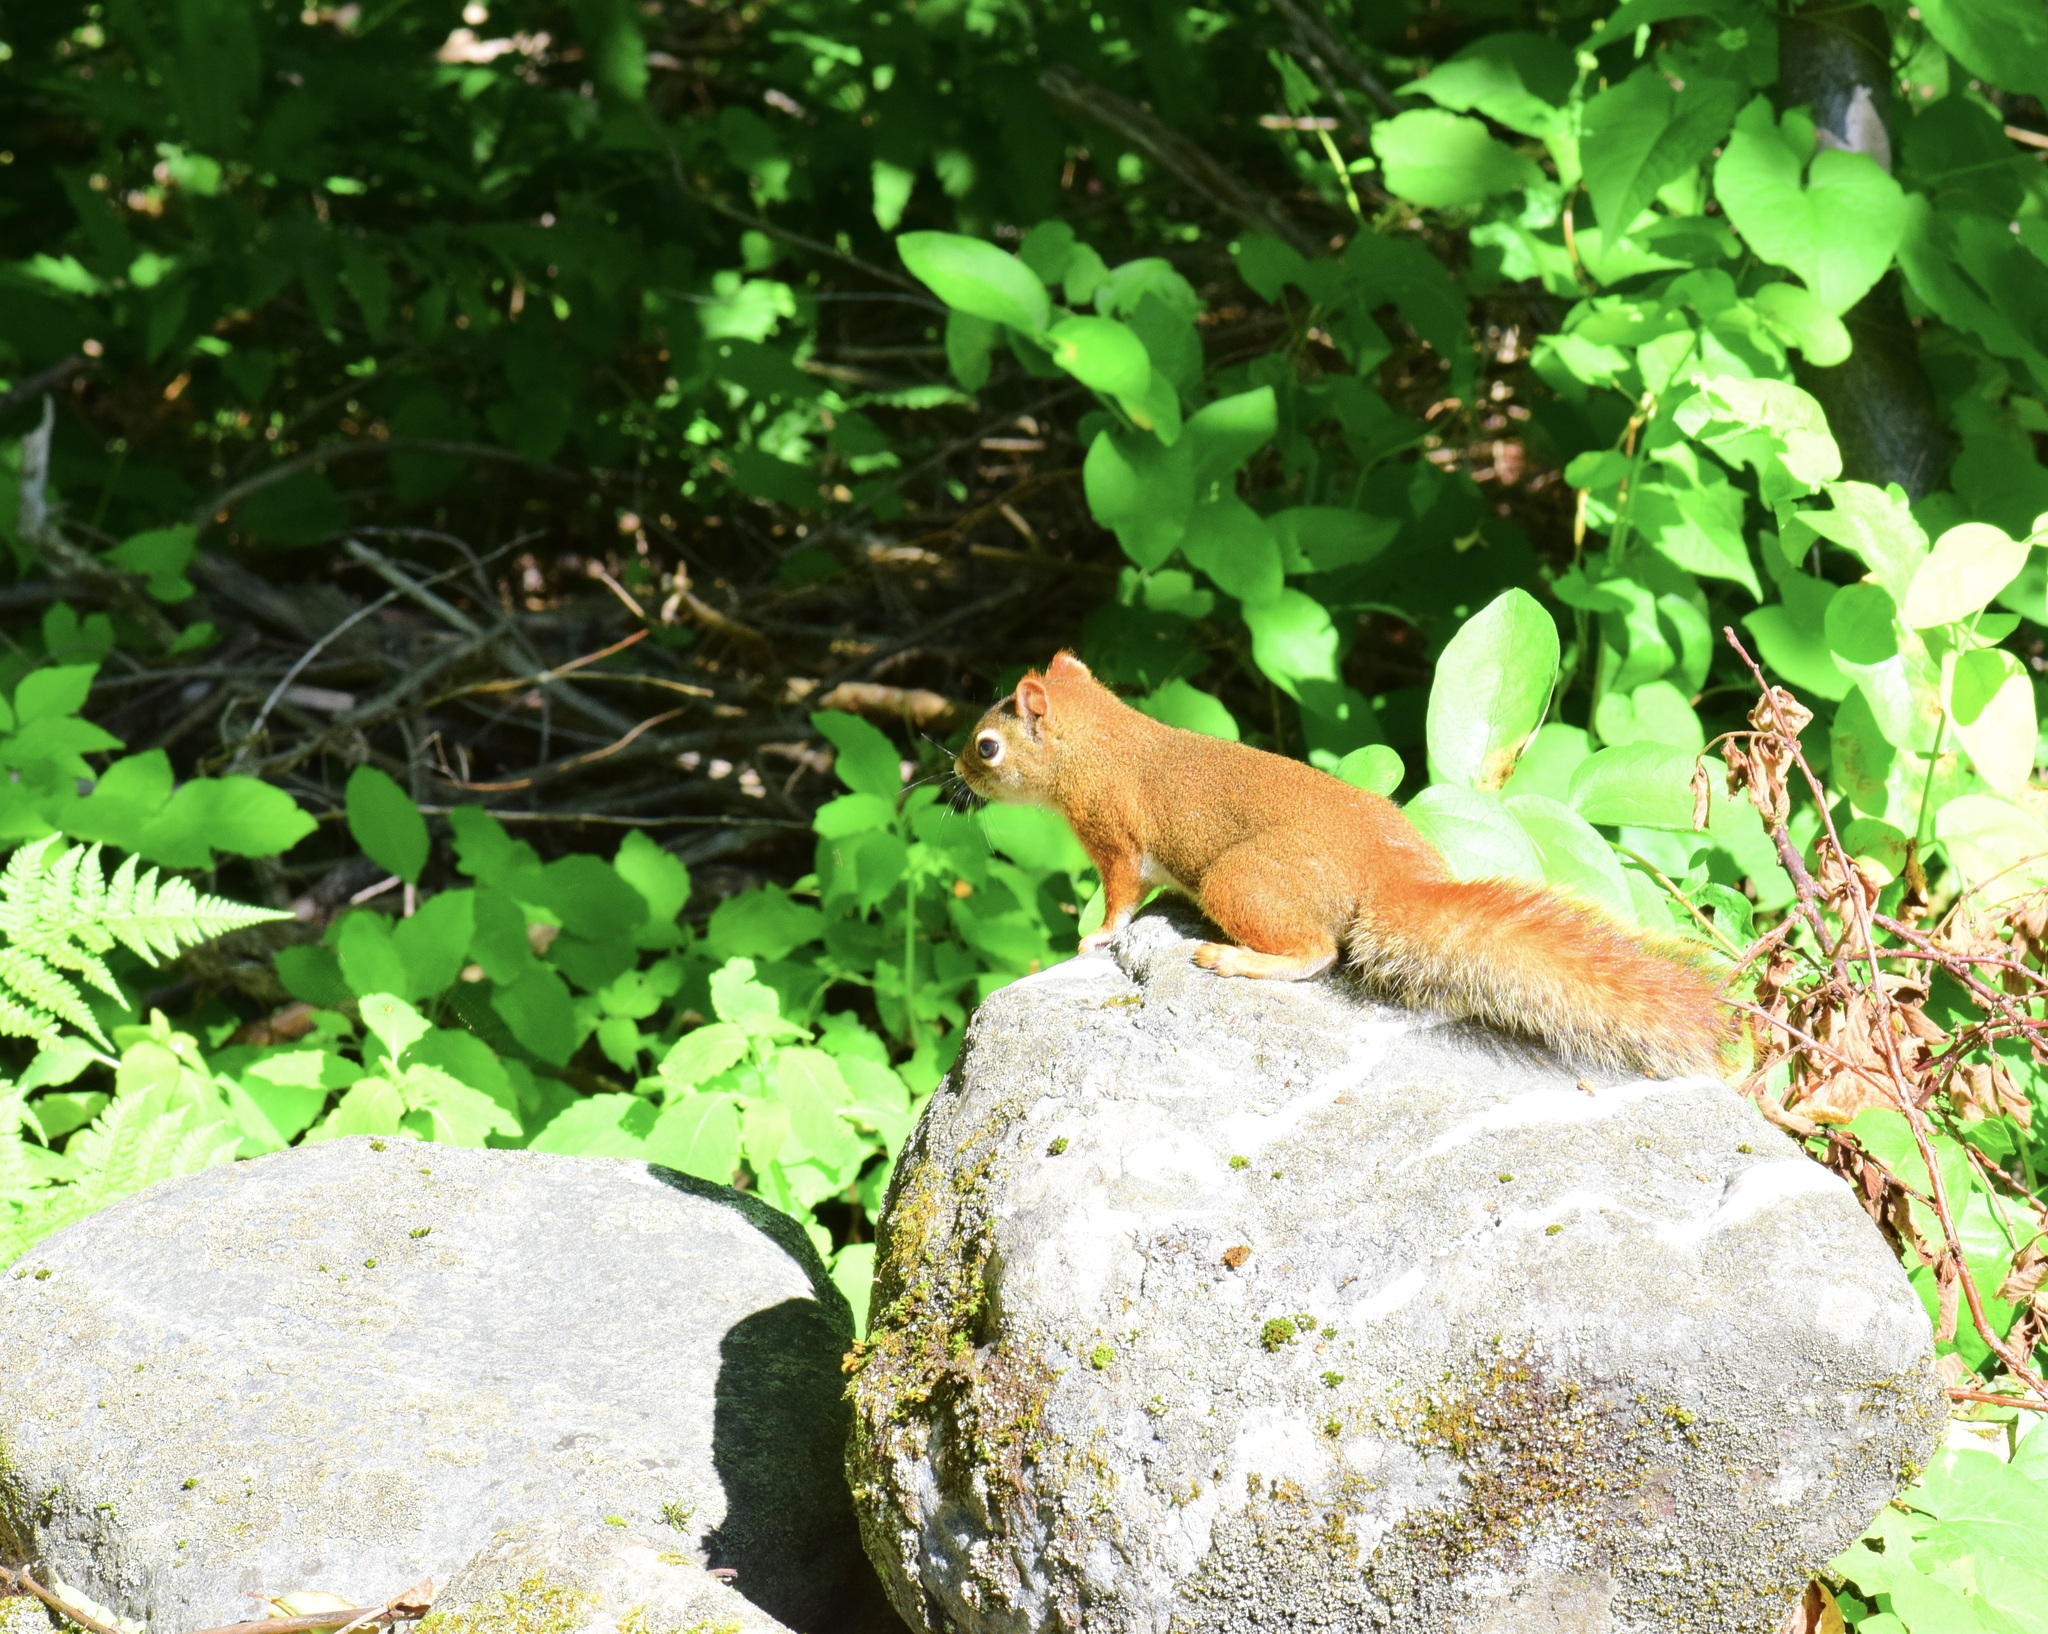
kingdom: Animalia
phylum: Chordata
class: Mammalia
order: Rodentia
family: Sciuridae
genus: Tamiasciurus
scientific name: Tamiasciurus hudsonicus
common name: Red squirrel
